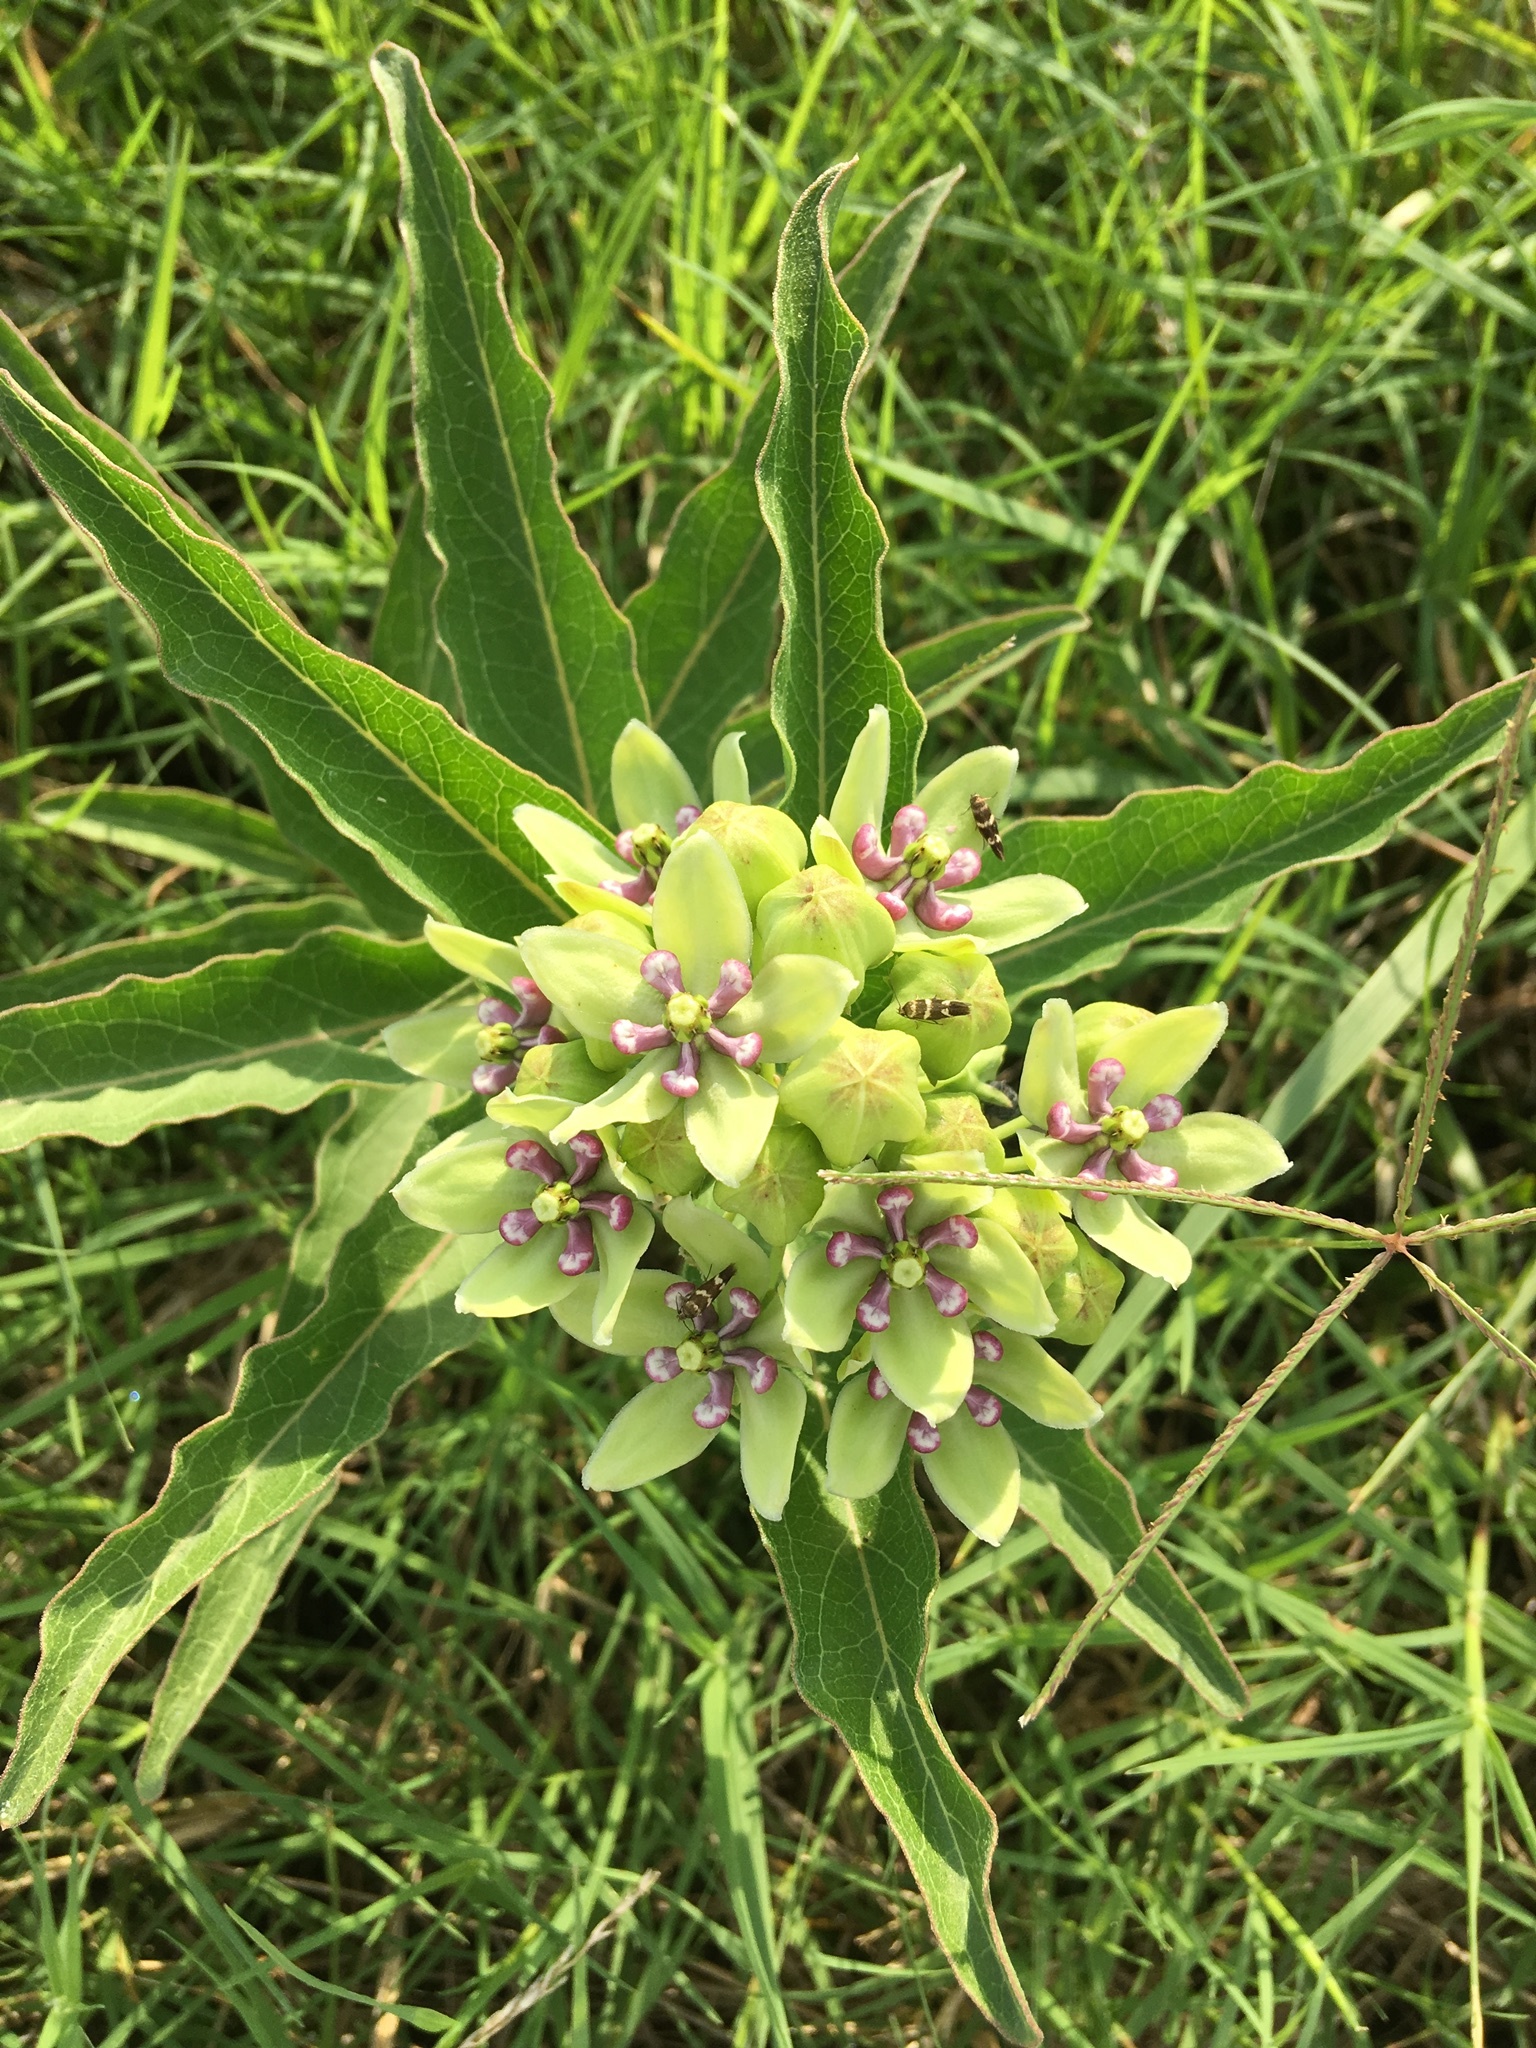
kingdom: Plantae
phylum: Tracheophyta
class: Magnoliopsida
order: Gentianales
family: Apocynaceae
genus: Asclepias
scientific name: Asclepias viridis
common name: Antelope-horns
